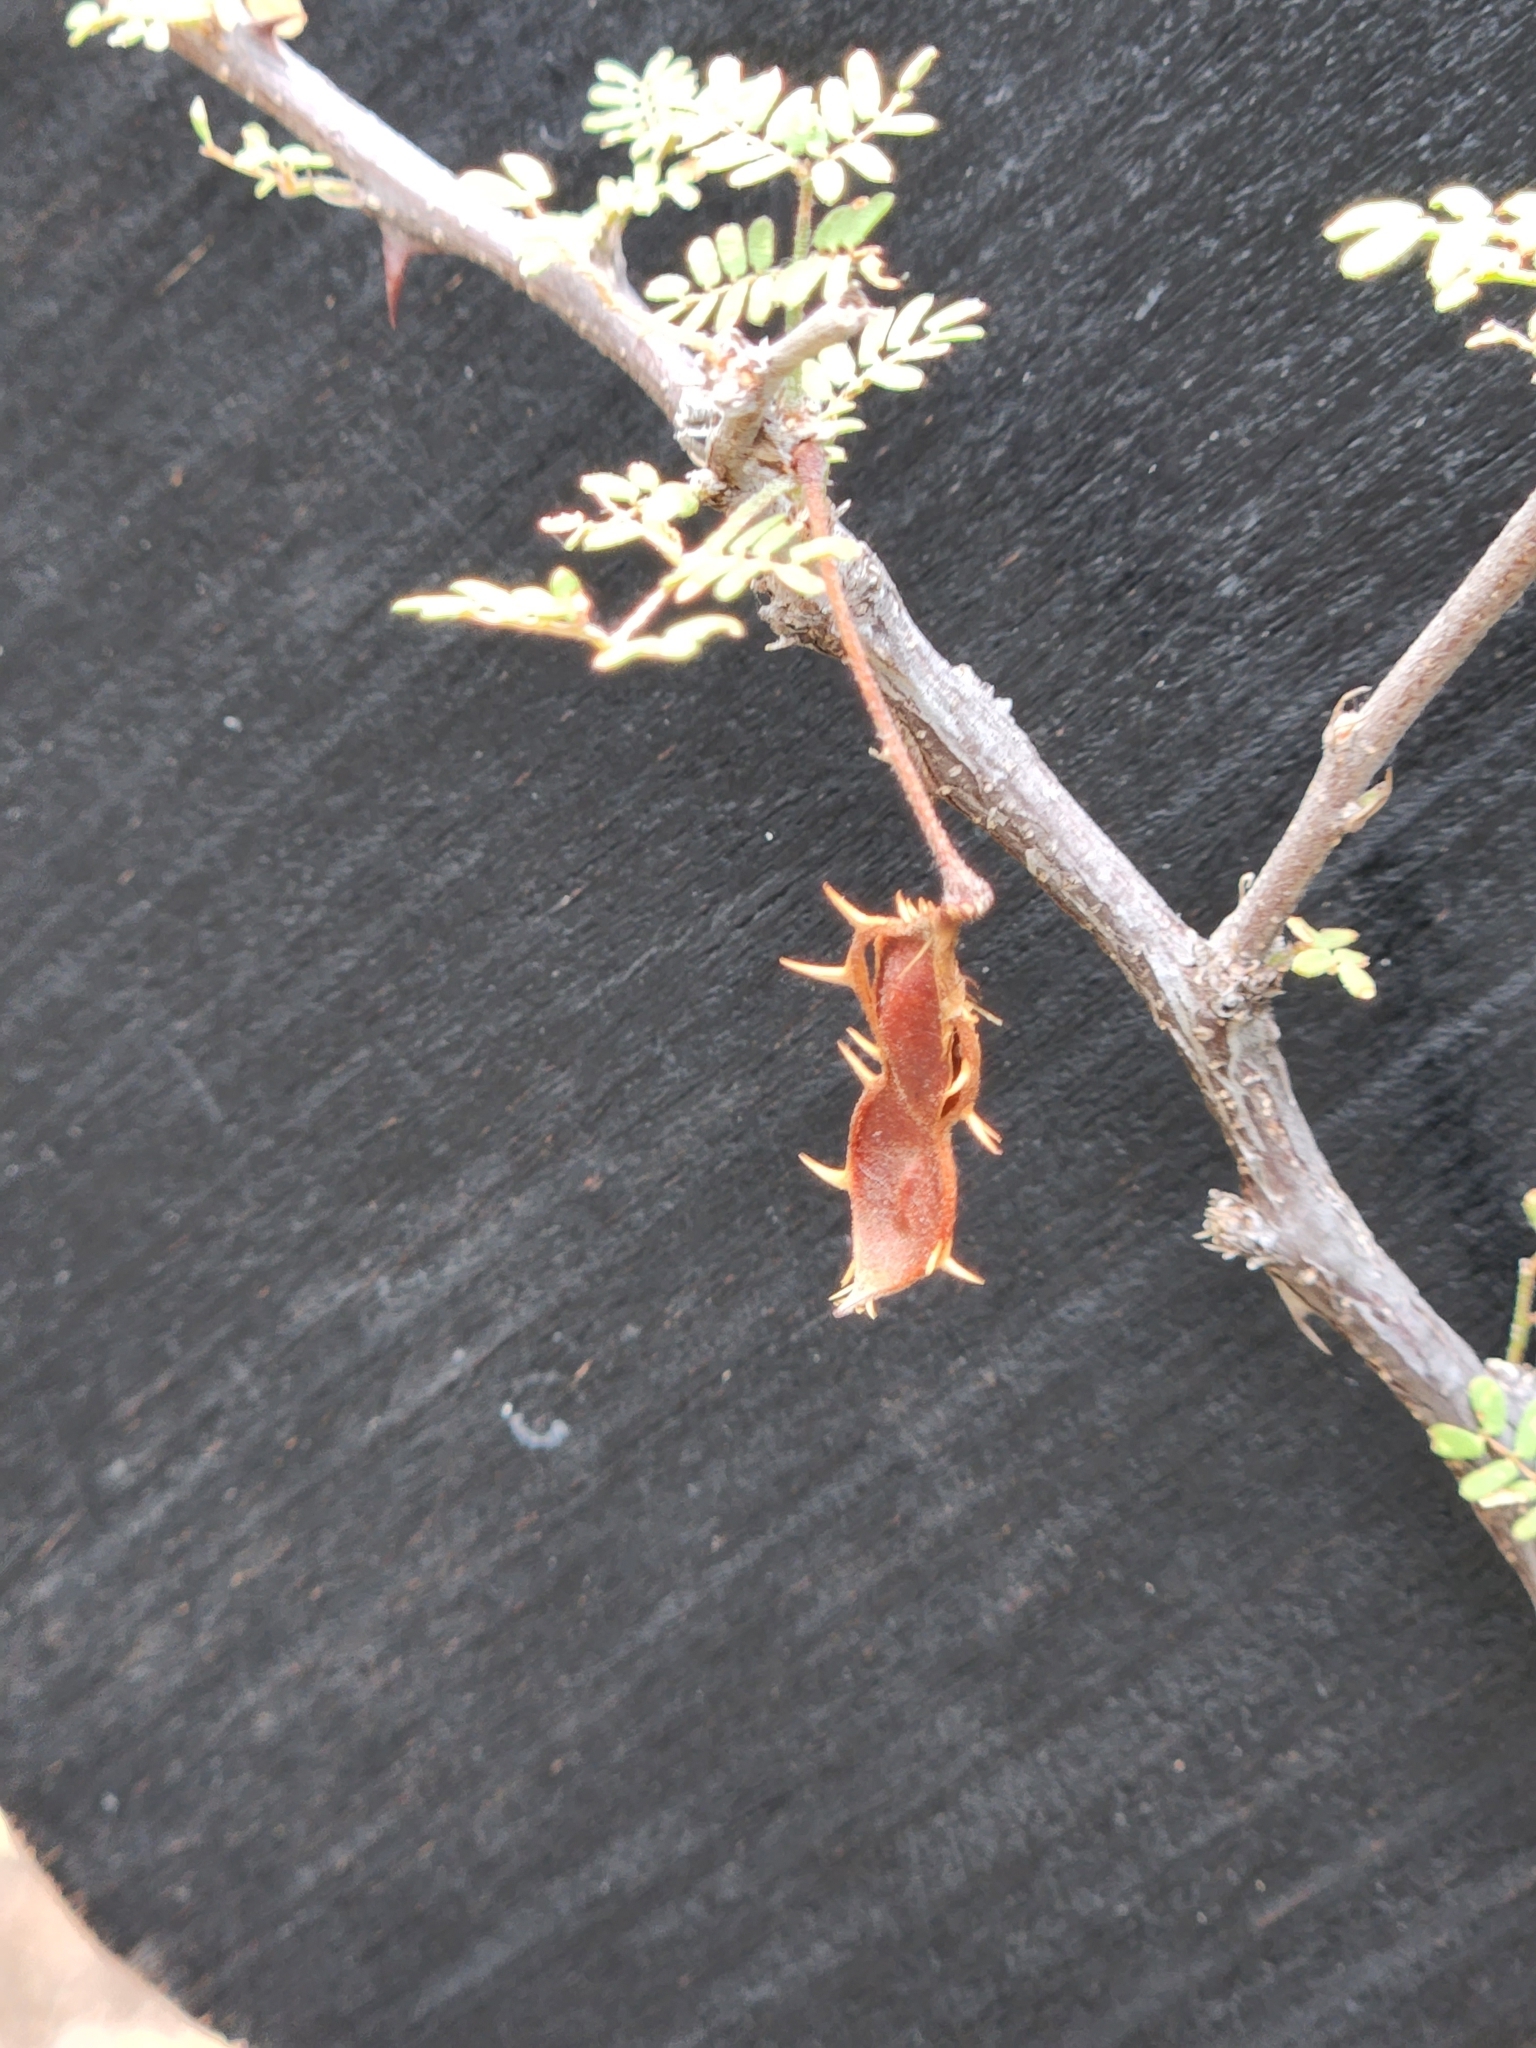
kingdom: Plantae
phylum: Tracheophyta
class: Magnoliopsida
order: Fabales
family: Fabaceae
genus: Mimosa
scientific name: Mimosa texana
